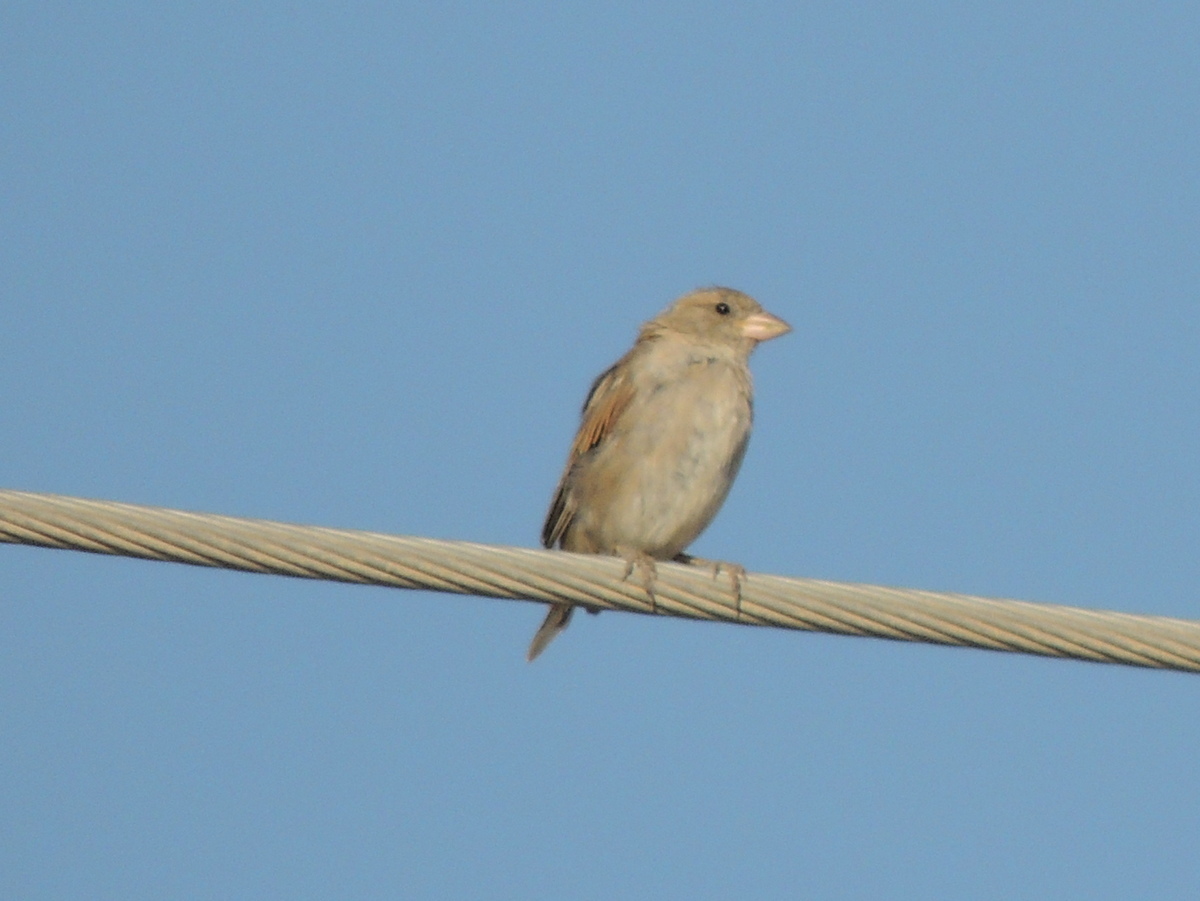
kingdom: Animalia
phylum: Chordata
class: Aves
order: Passeriformes
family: Passeridae
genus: Passer
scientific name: Passer domesticus
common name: House sparrow
